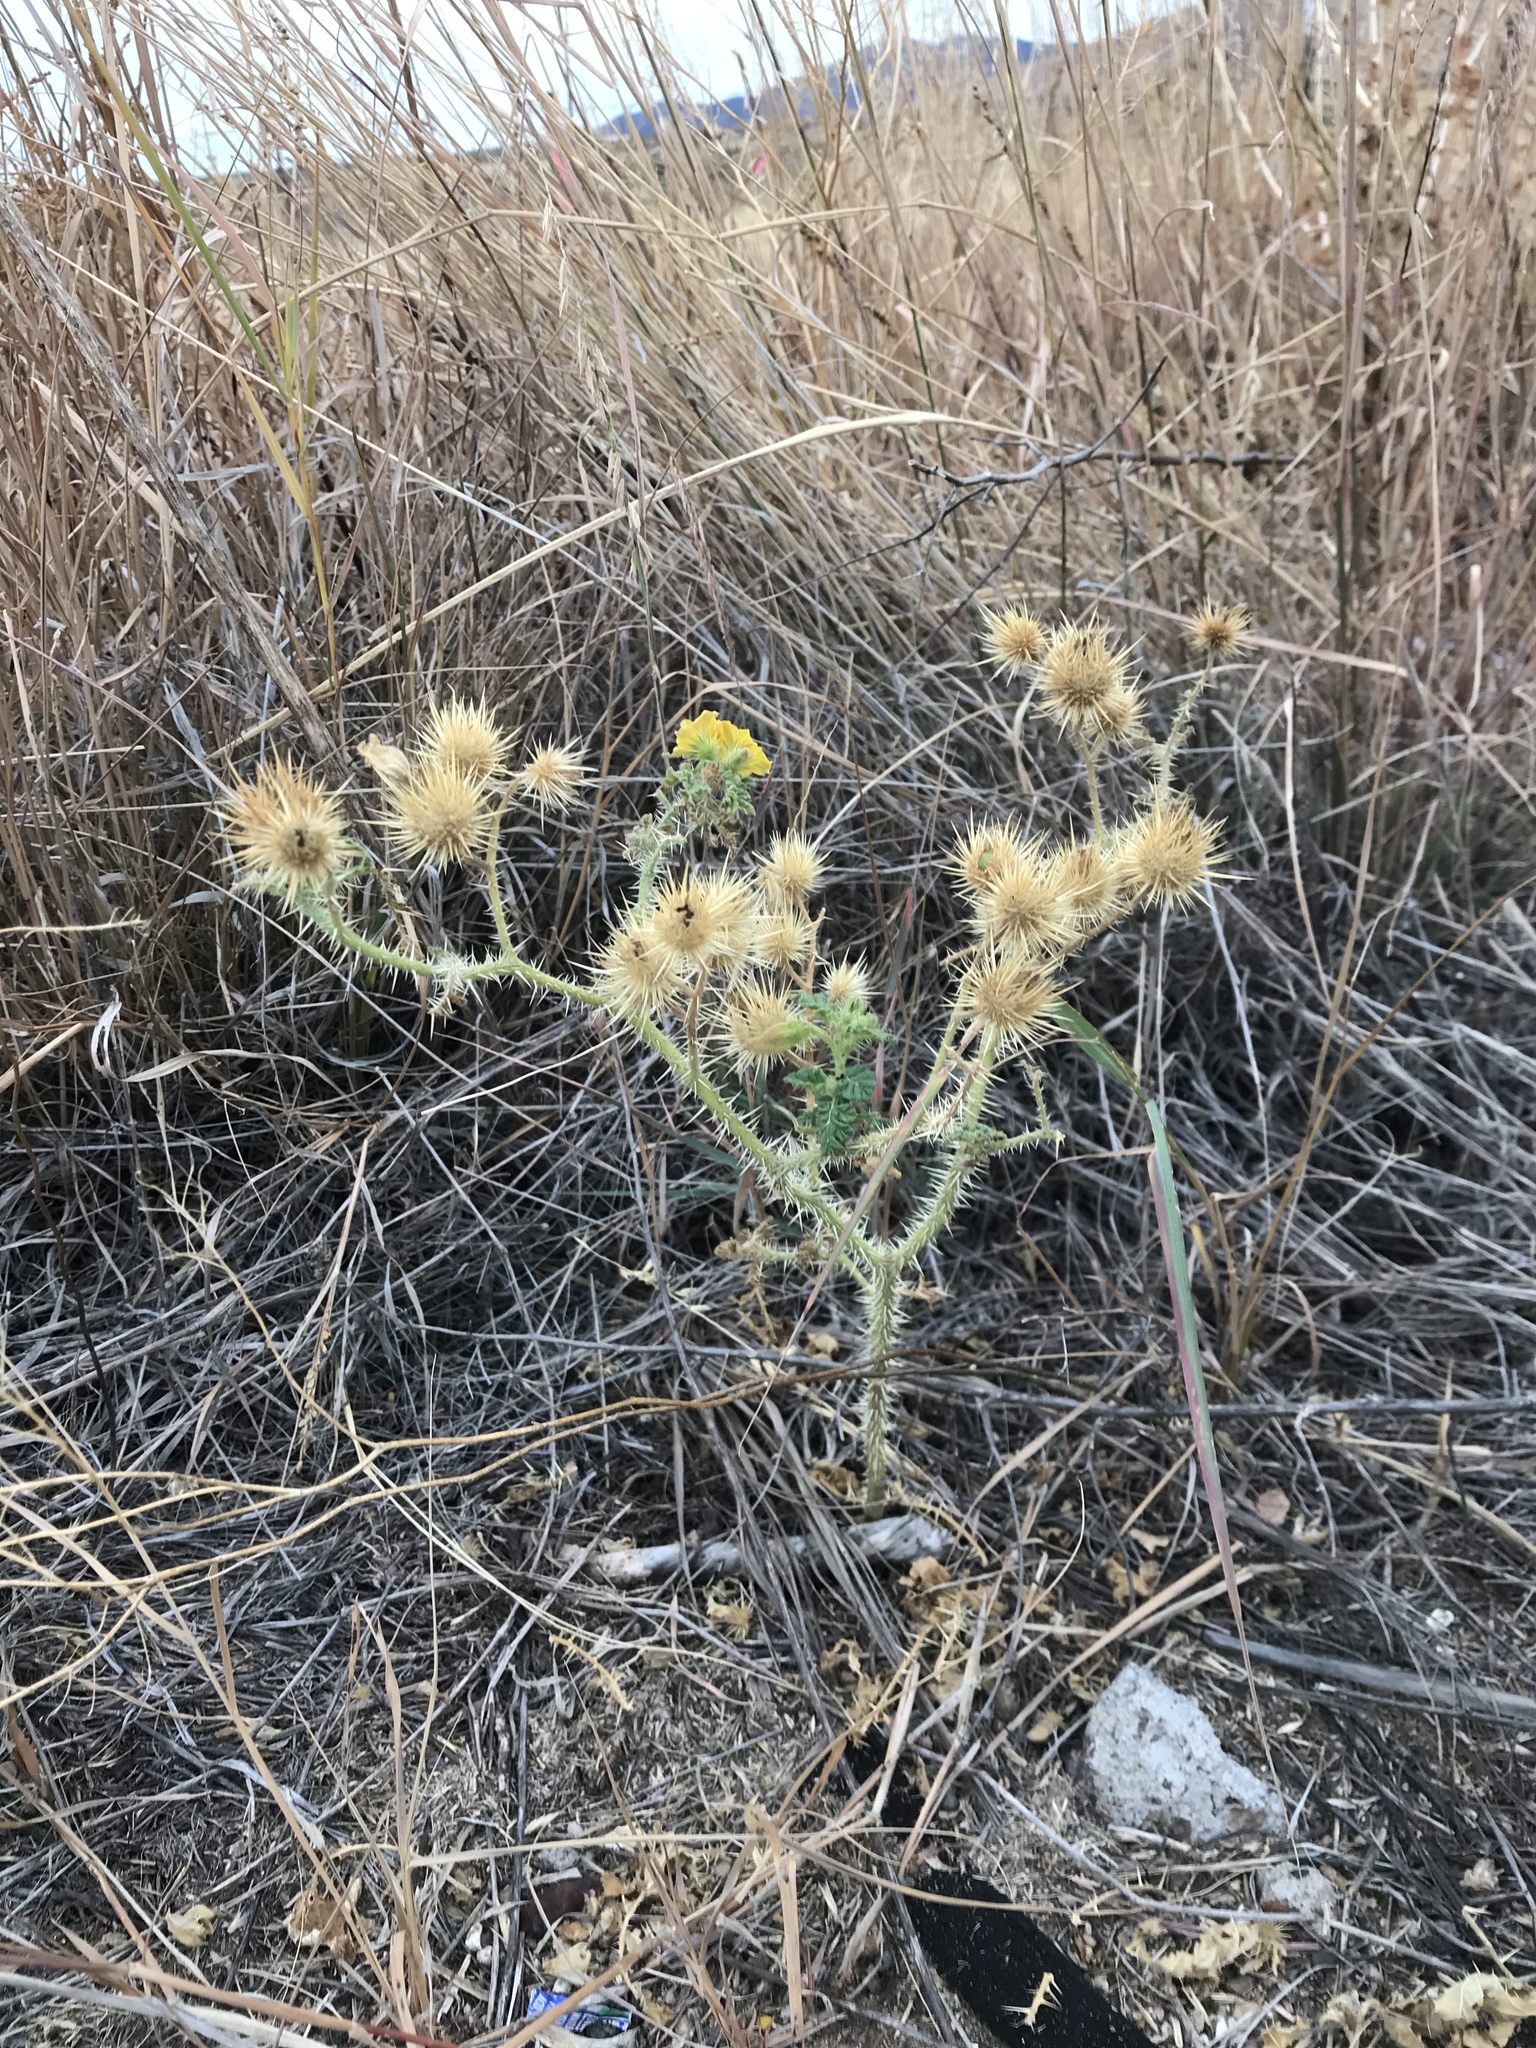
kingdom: Plantae
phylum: Tracheophyta
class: Magnoliopsida
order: Solanales
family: Solanaceae
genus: Solanum
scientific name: Solanum angustifolium
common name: Buffalobur nightshade
